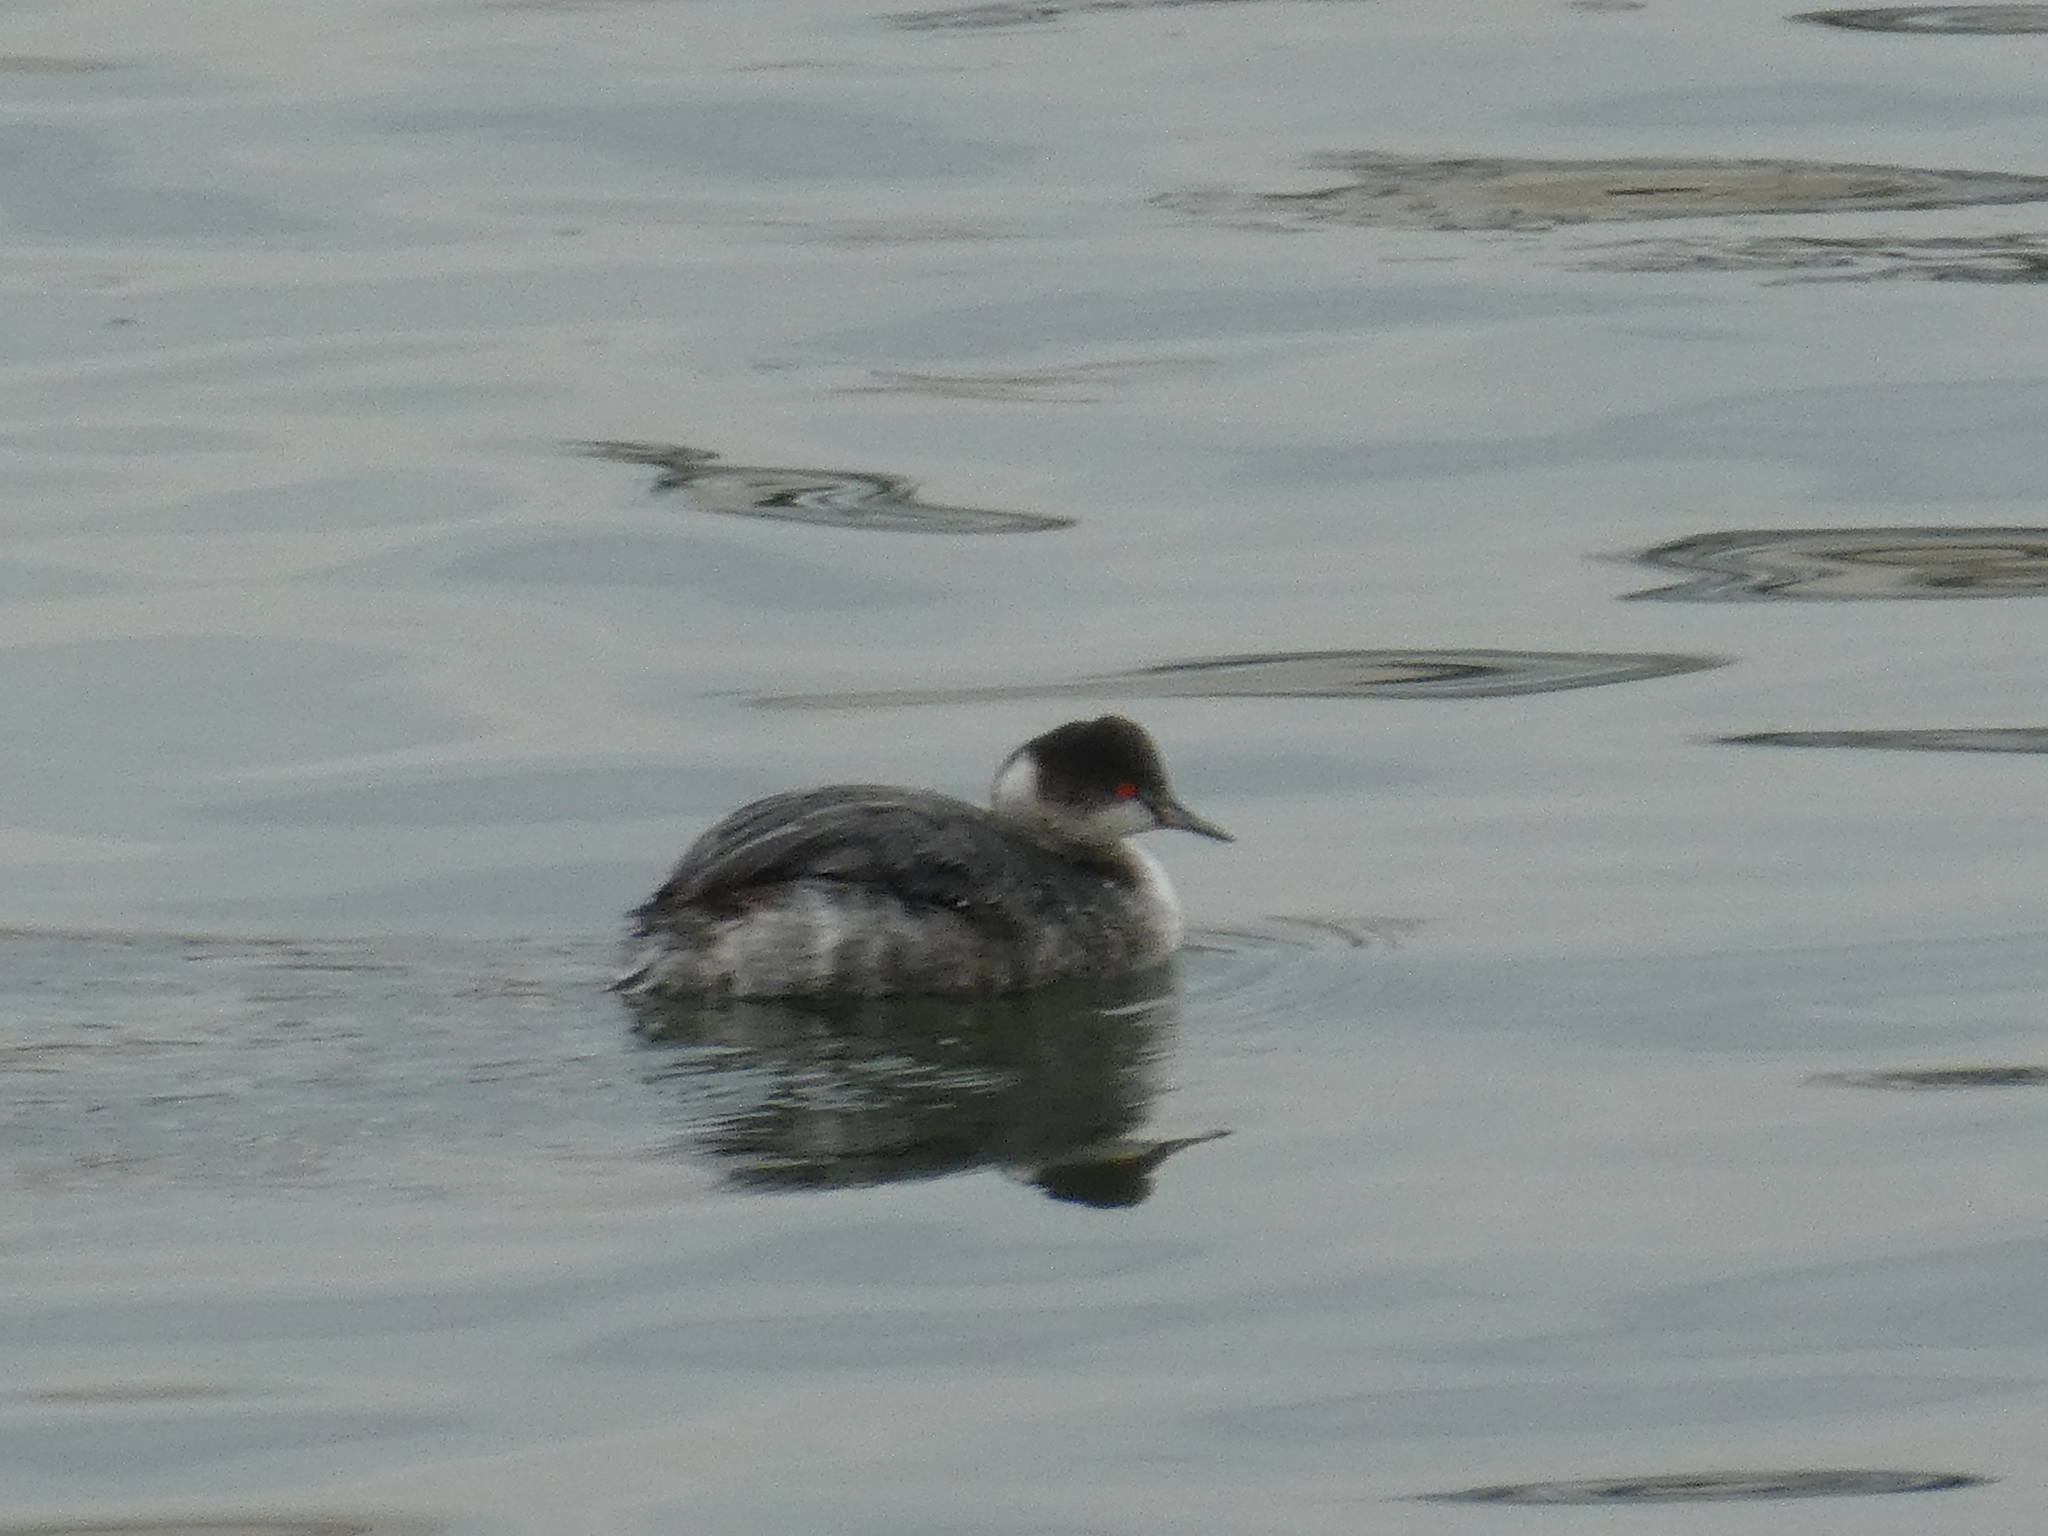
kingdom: Animalia
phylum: Chordata
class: Aves
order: Podicipediformes
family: Podicipedidae
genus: Podiceps
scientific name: Podiceps nigricollis
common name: Black-necked grebe
